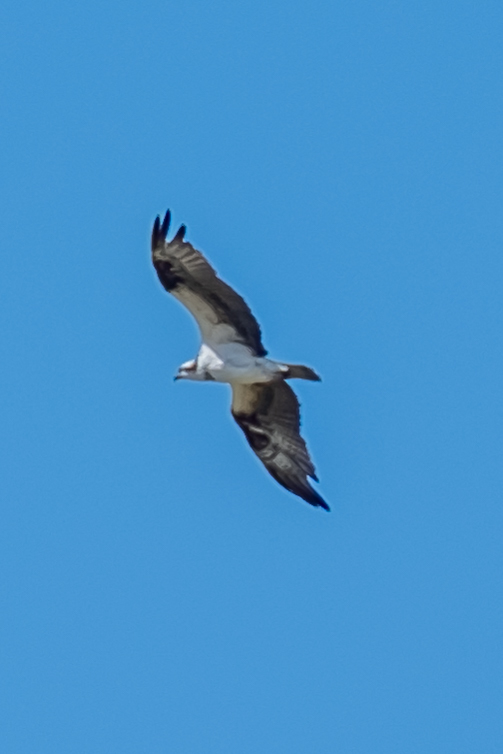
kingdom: Animalia
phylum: Chordata
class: Aves
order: Accipitriformes
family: Pandionidae
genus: Pandion
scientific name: Pandion haliaetus
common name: Osprey
